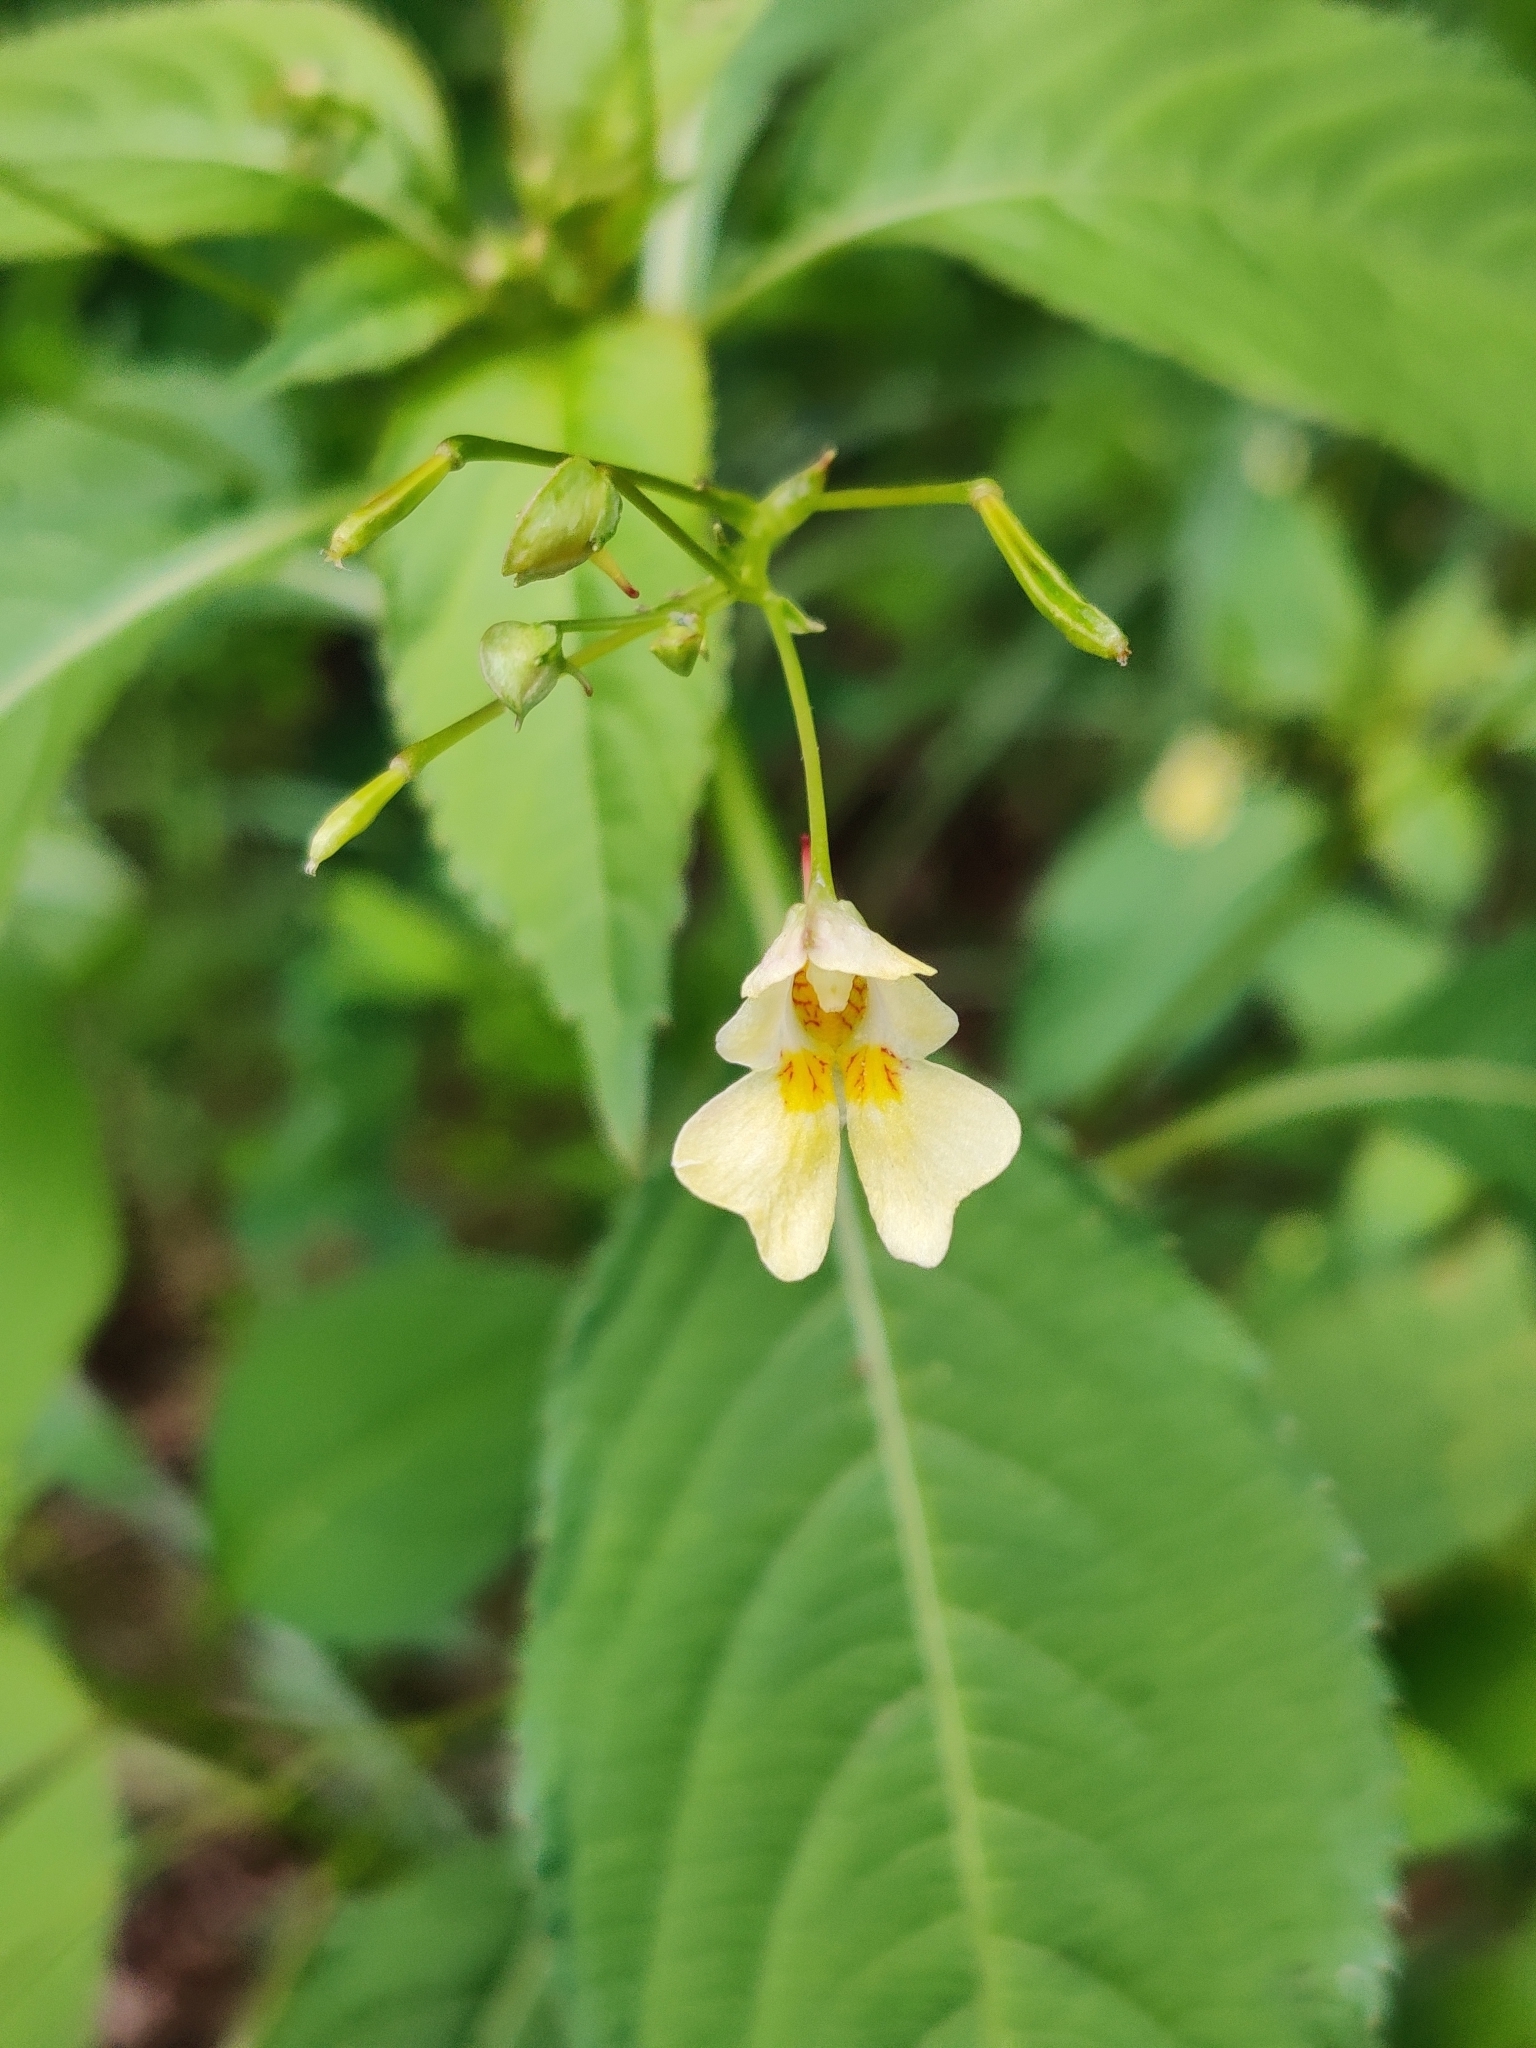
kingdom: Plantae
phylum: Tracheophyta
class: Magnoliopsida
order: Ericales
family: Balsaminaceae
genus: Impatiens
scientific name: Impatiens parviflora
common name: Small balsam
